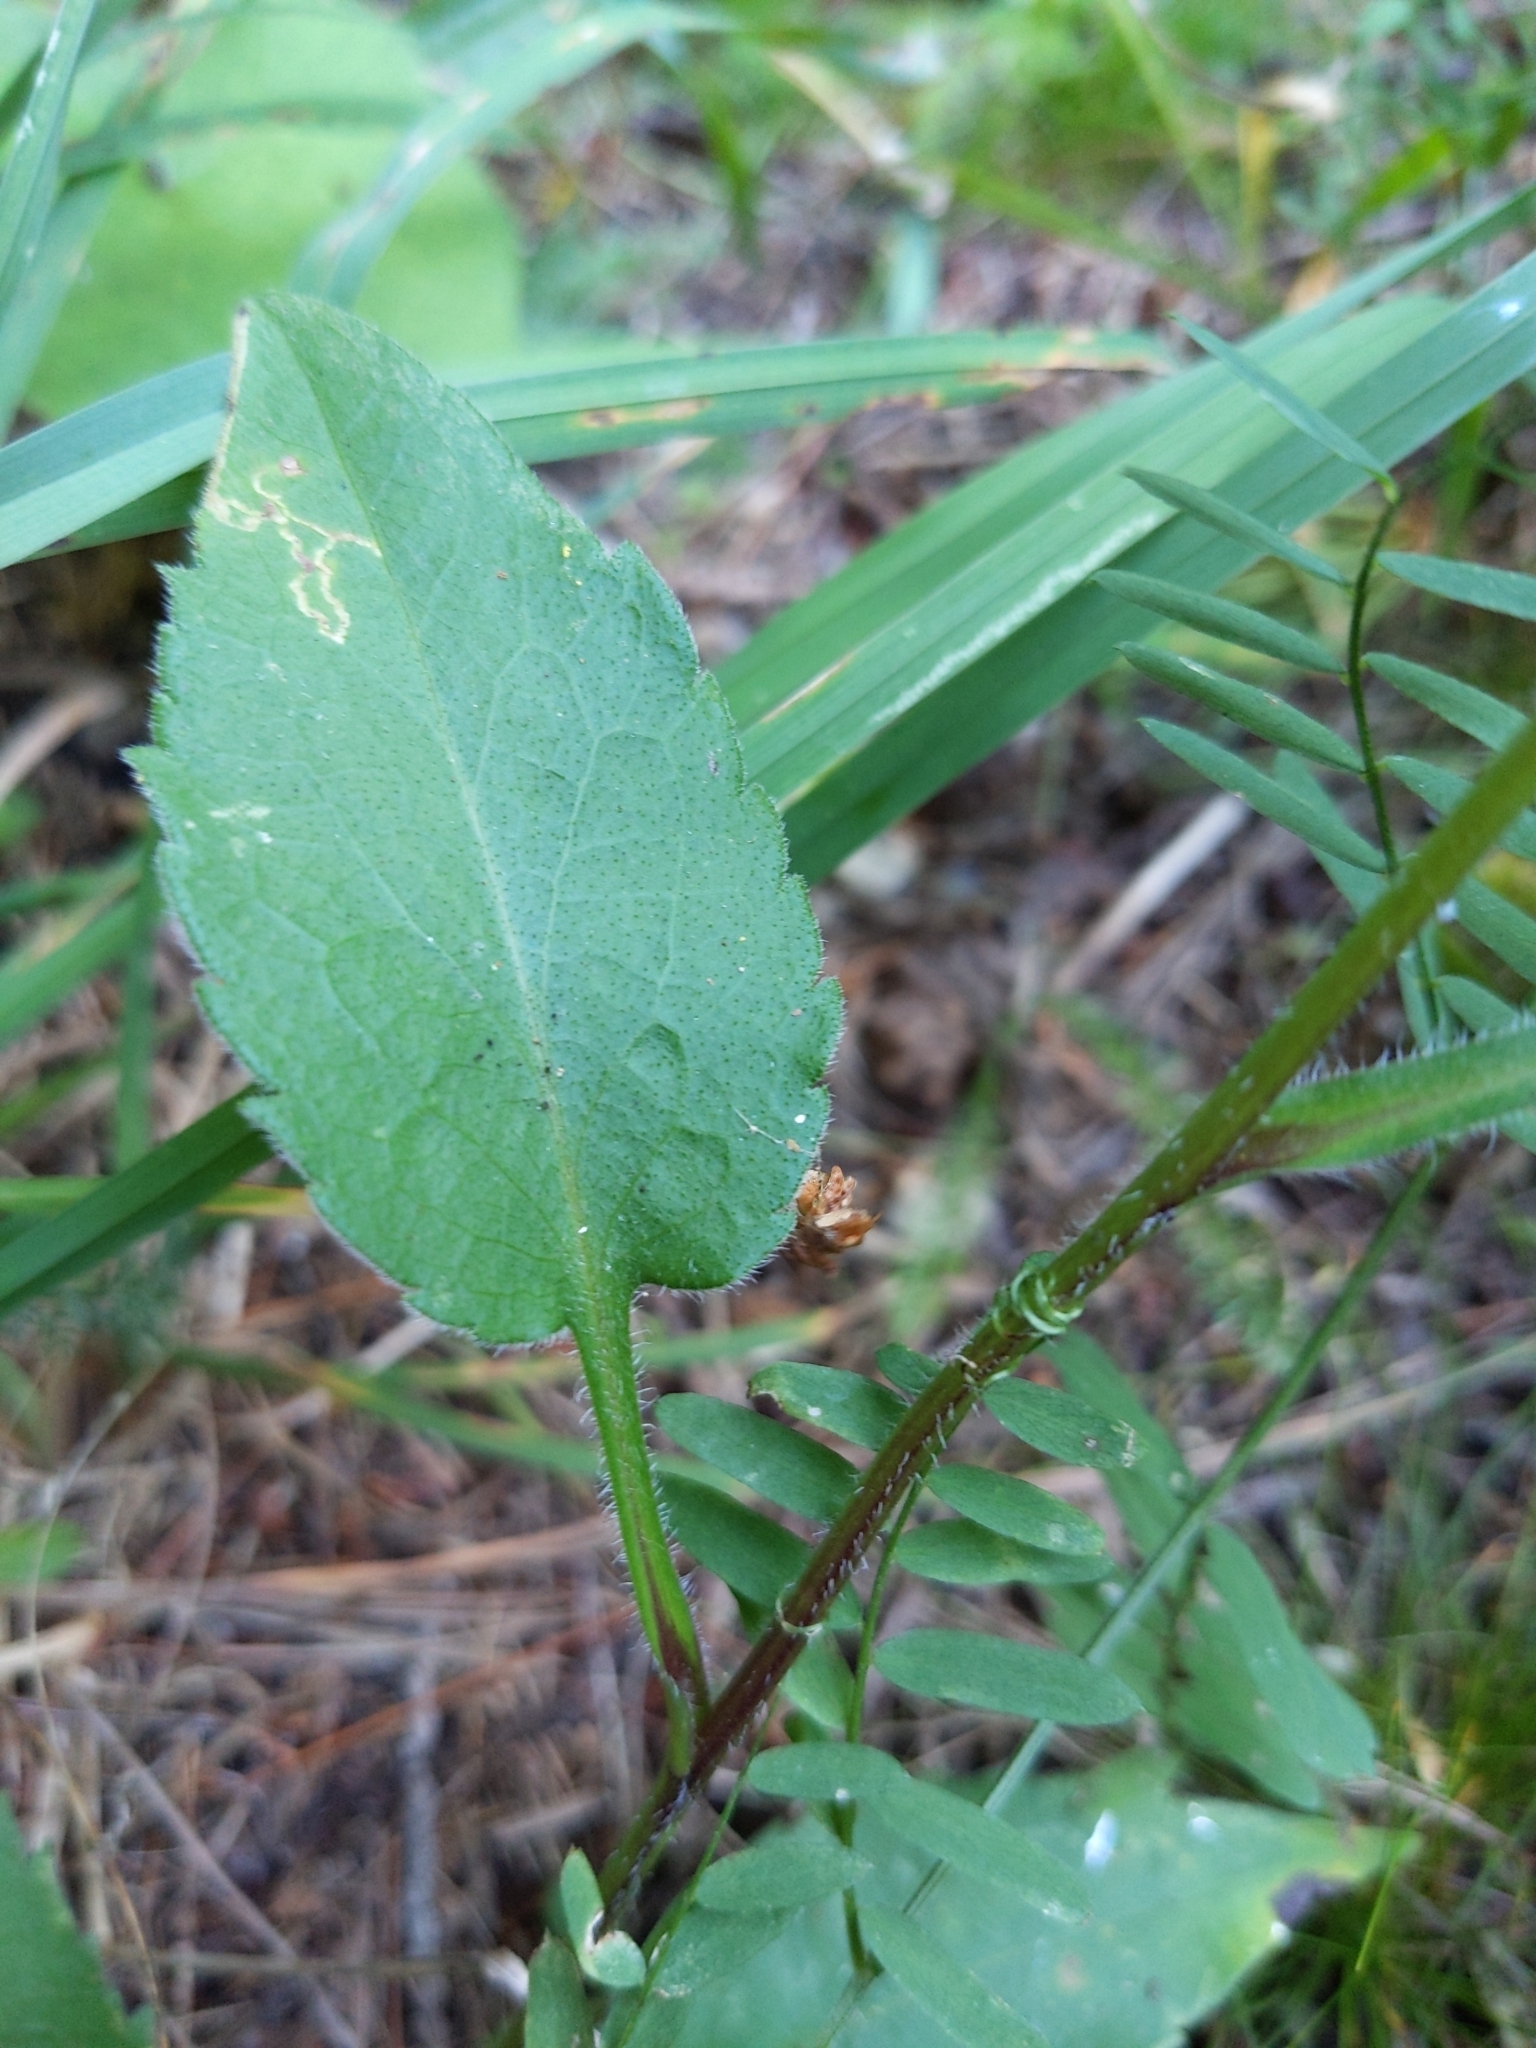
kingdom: Plantae
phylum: Tracheophyta
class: Magnoliopsida
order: Asterales
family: Asteraceae
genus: Symphyotrichum
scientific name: Symphyotrichum ciliolatum
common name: Fringed blue aster
